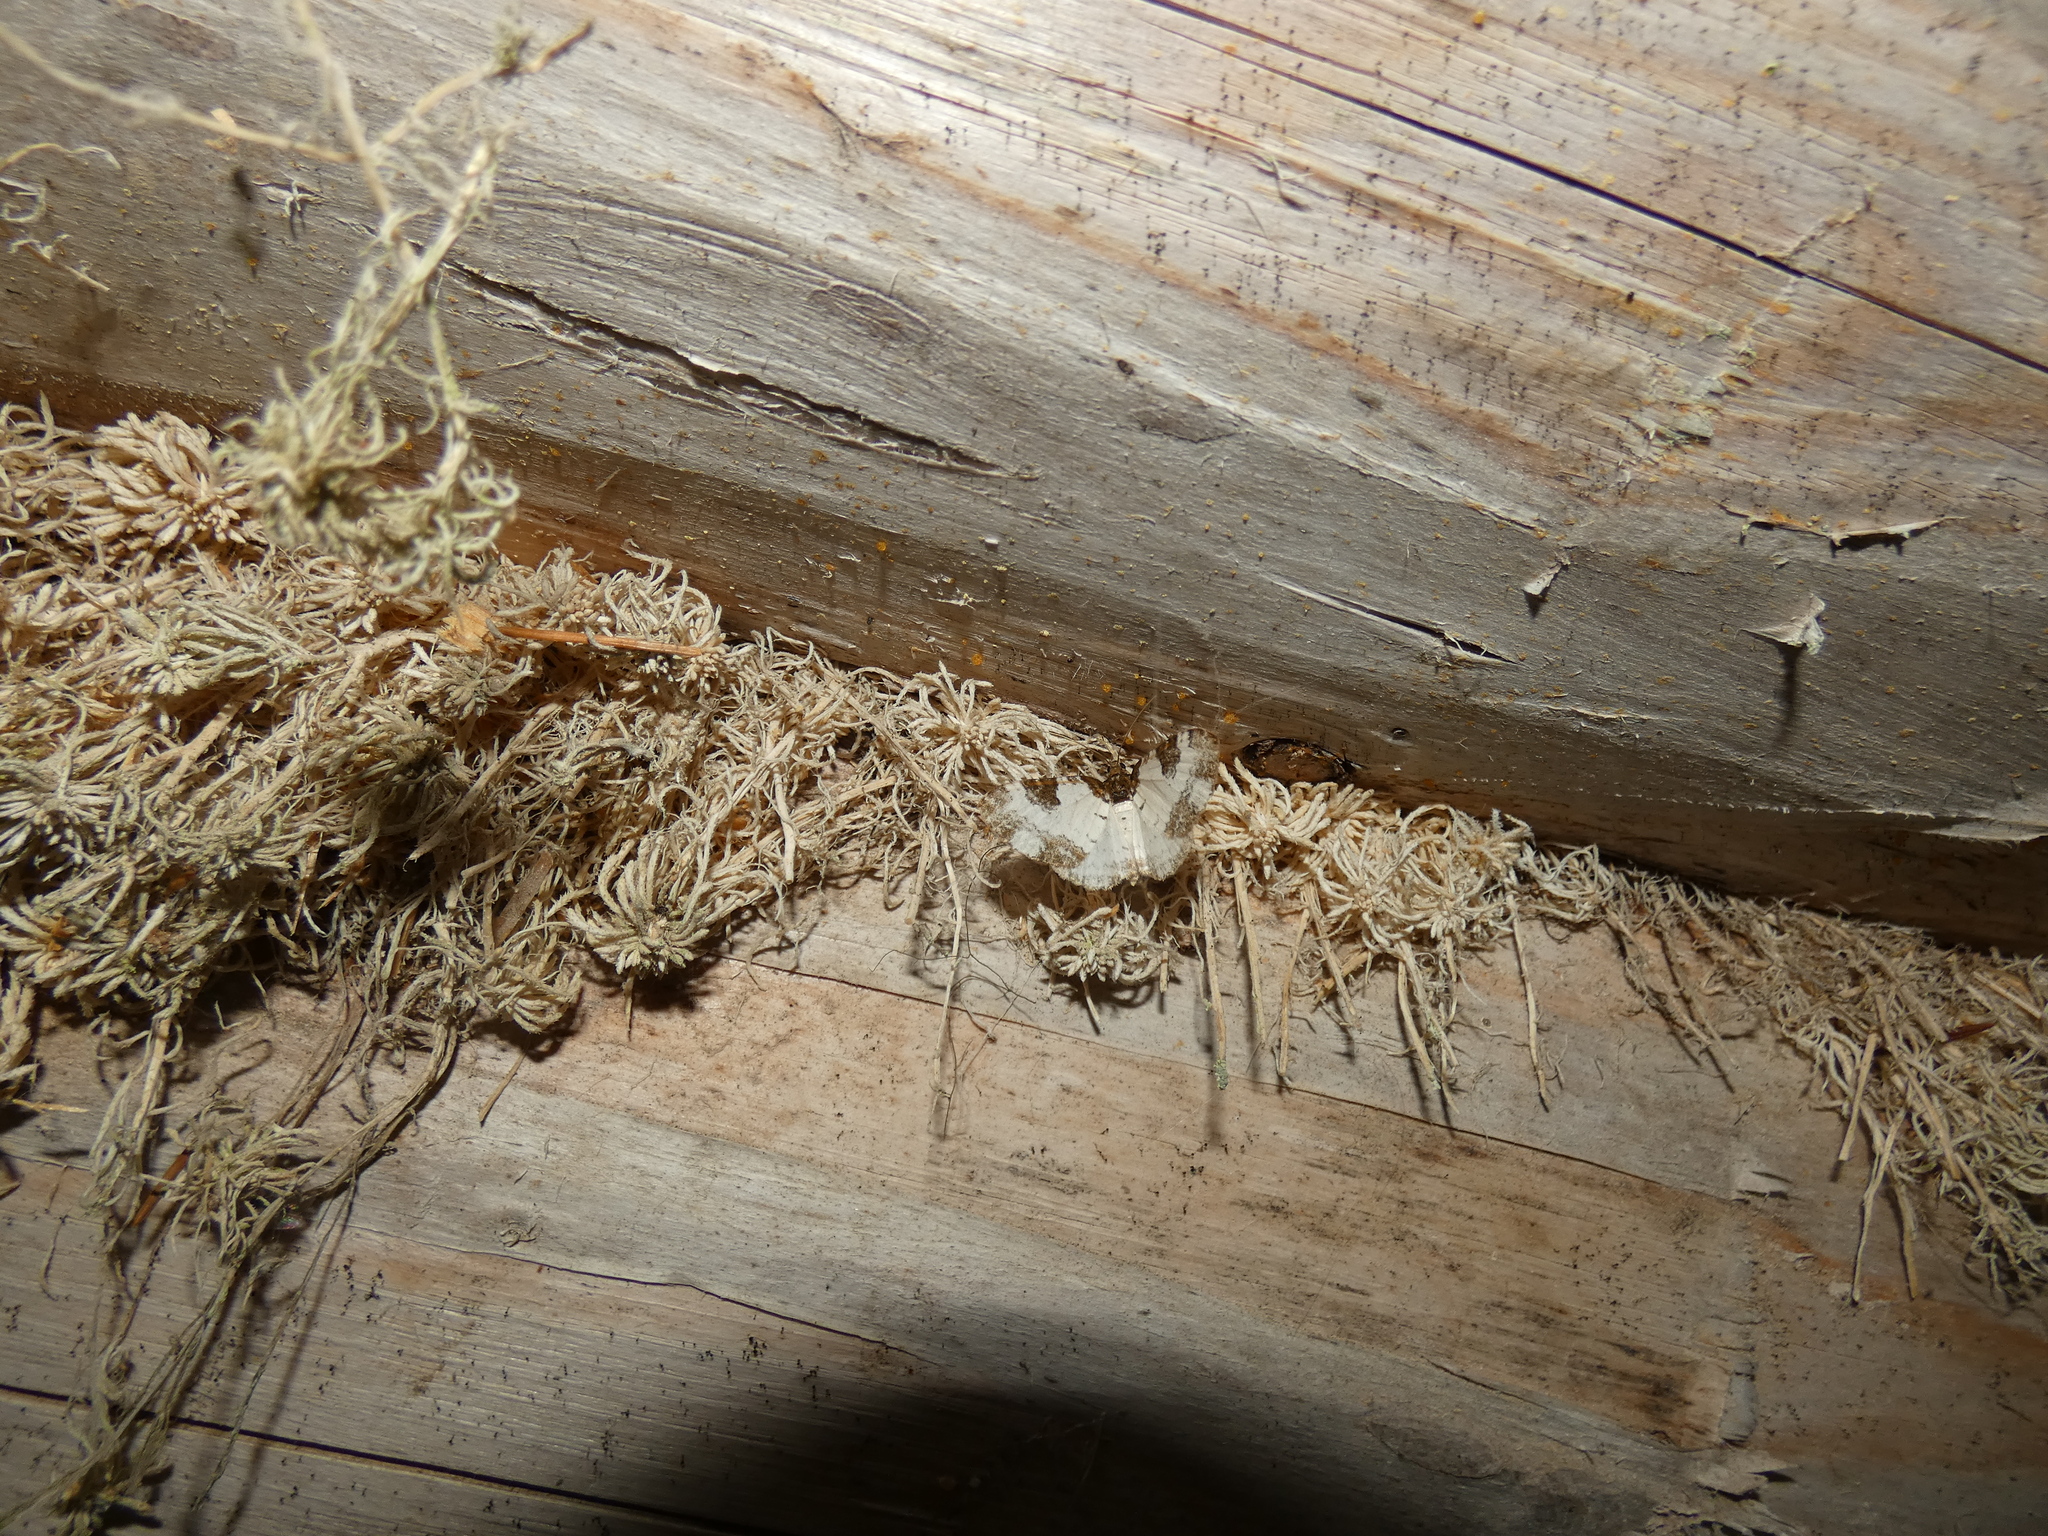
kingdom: Animalia
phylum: Arthropoda
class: Insecta
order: Lepidoptera
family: Geometridae
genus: Melanthia
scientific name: Melanthia procellata
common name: Pretty chalk carpet
